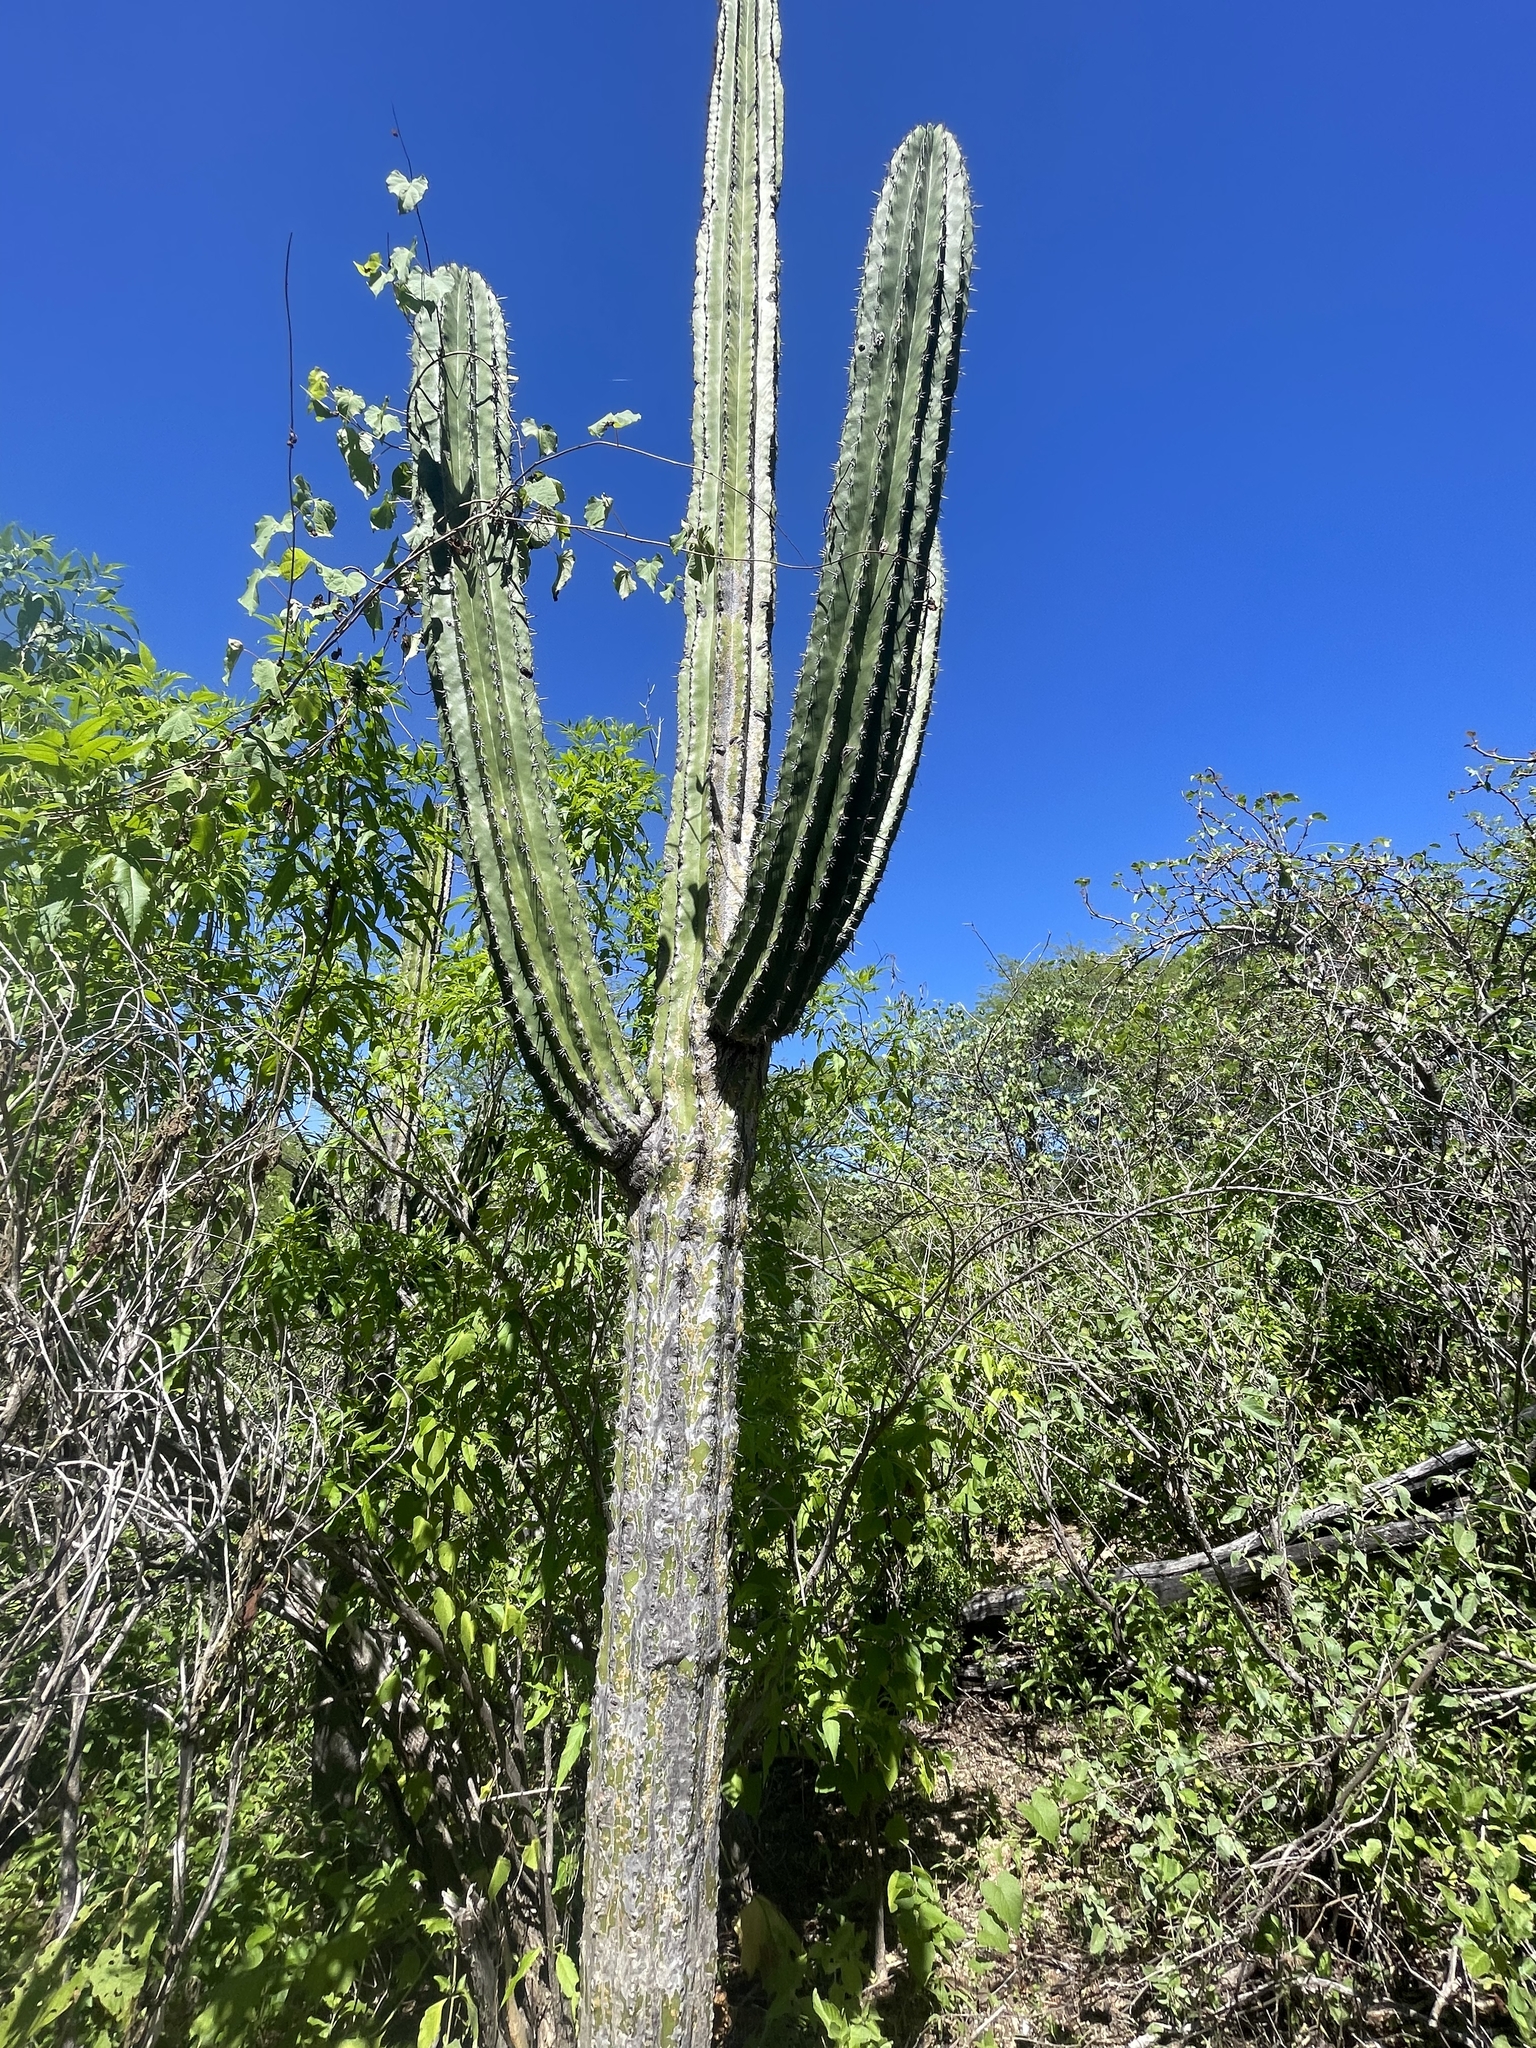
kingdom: Plantae
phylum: Tracheophyta
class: Magnoliopsida
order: Caryophyllales
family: Cactaceae
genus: Pachycereus
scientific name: Pachycereus pecten-aboriginum
